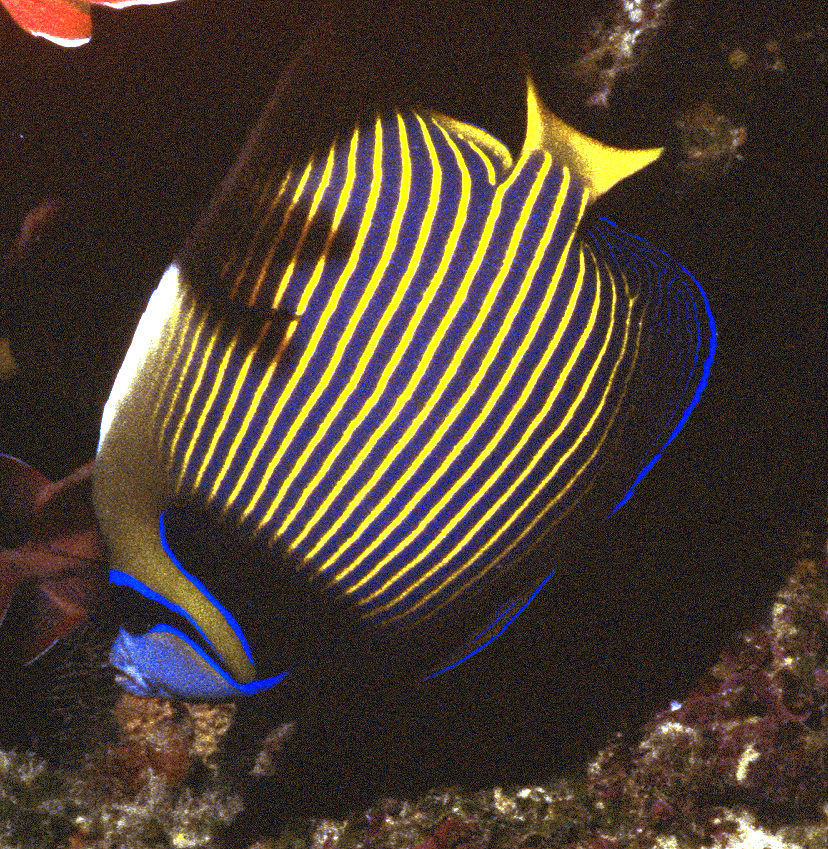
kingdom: Animalia
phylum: Chordata
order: Perciformes
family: Pomacanthidae
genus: Pomacanthus
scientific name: Pomacanthus imperator
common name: Emperor angelfish
